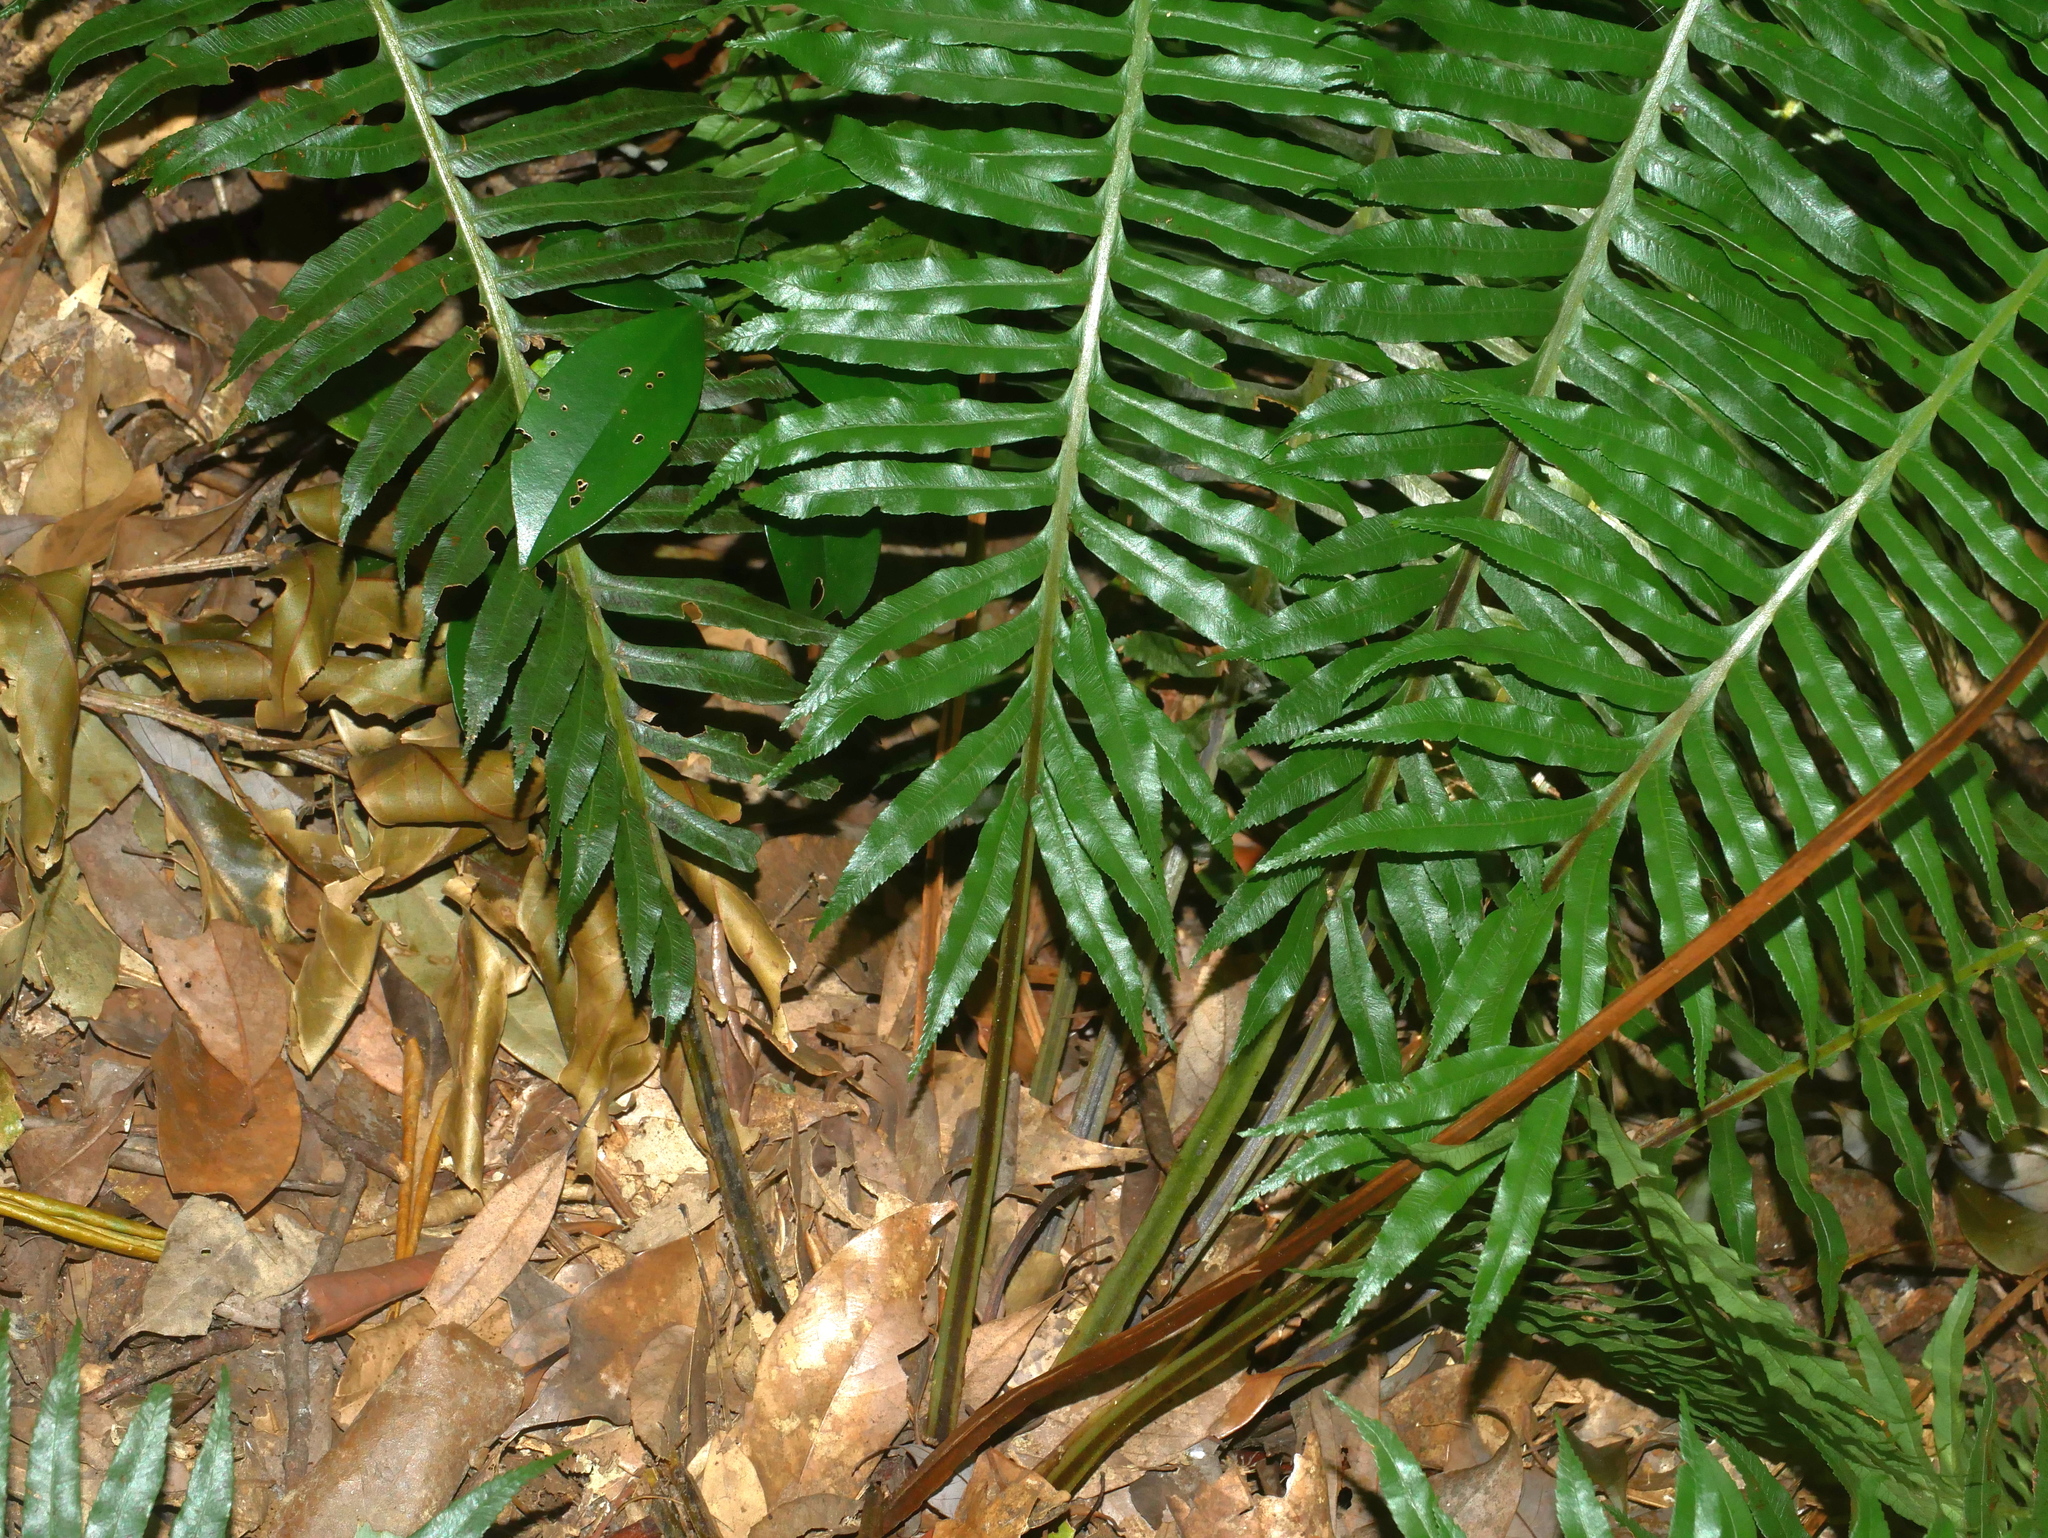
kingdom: Plantae
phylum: Tracheophyta
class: Polypodiopsida
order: Cyatheales
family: Plagiogyriaceae
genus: Plagiogyria
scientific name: Plagiogyria falcata
